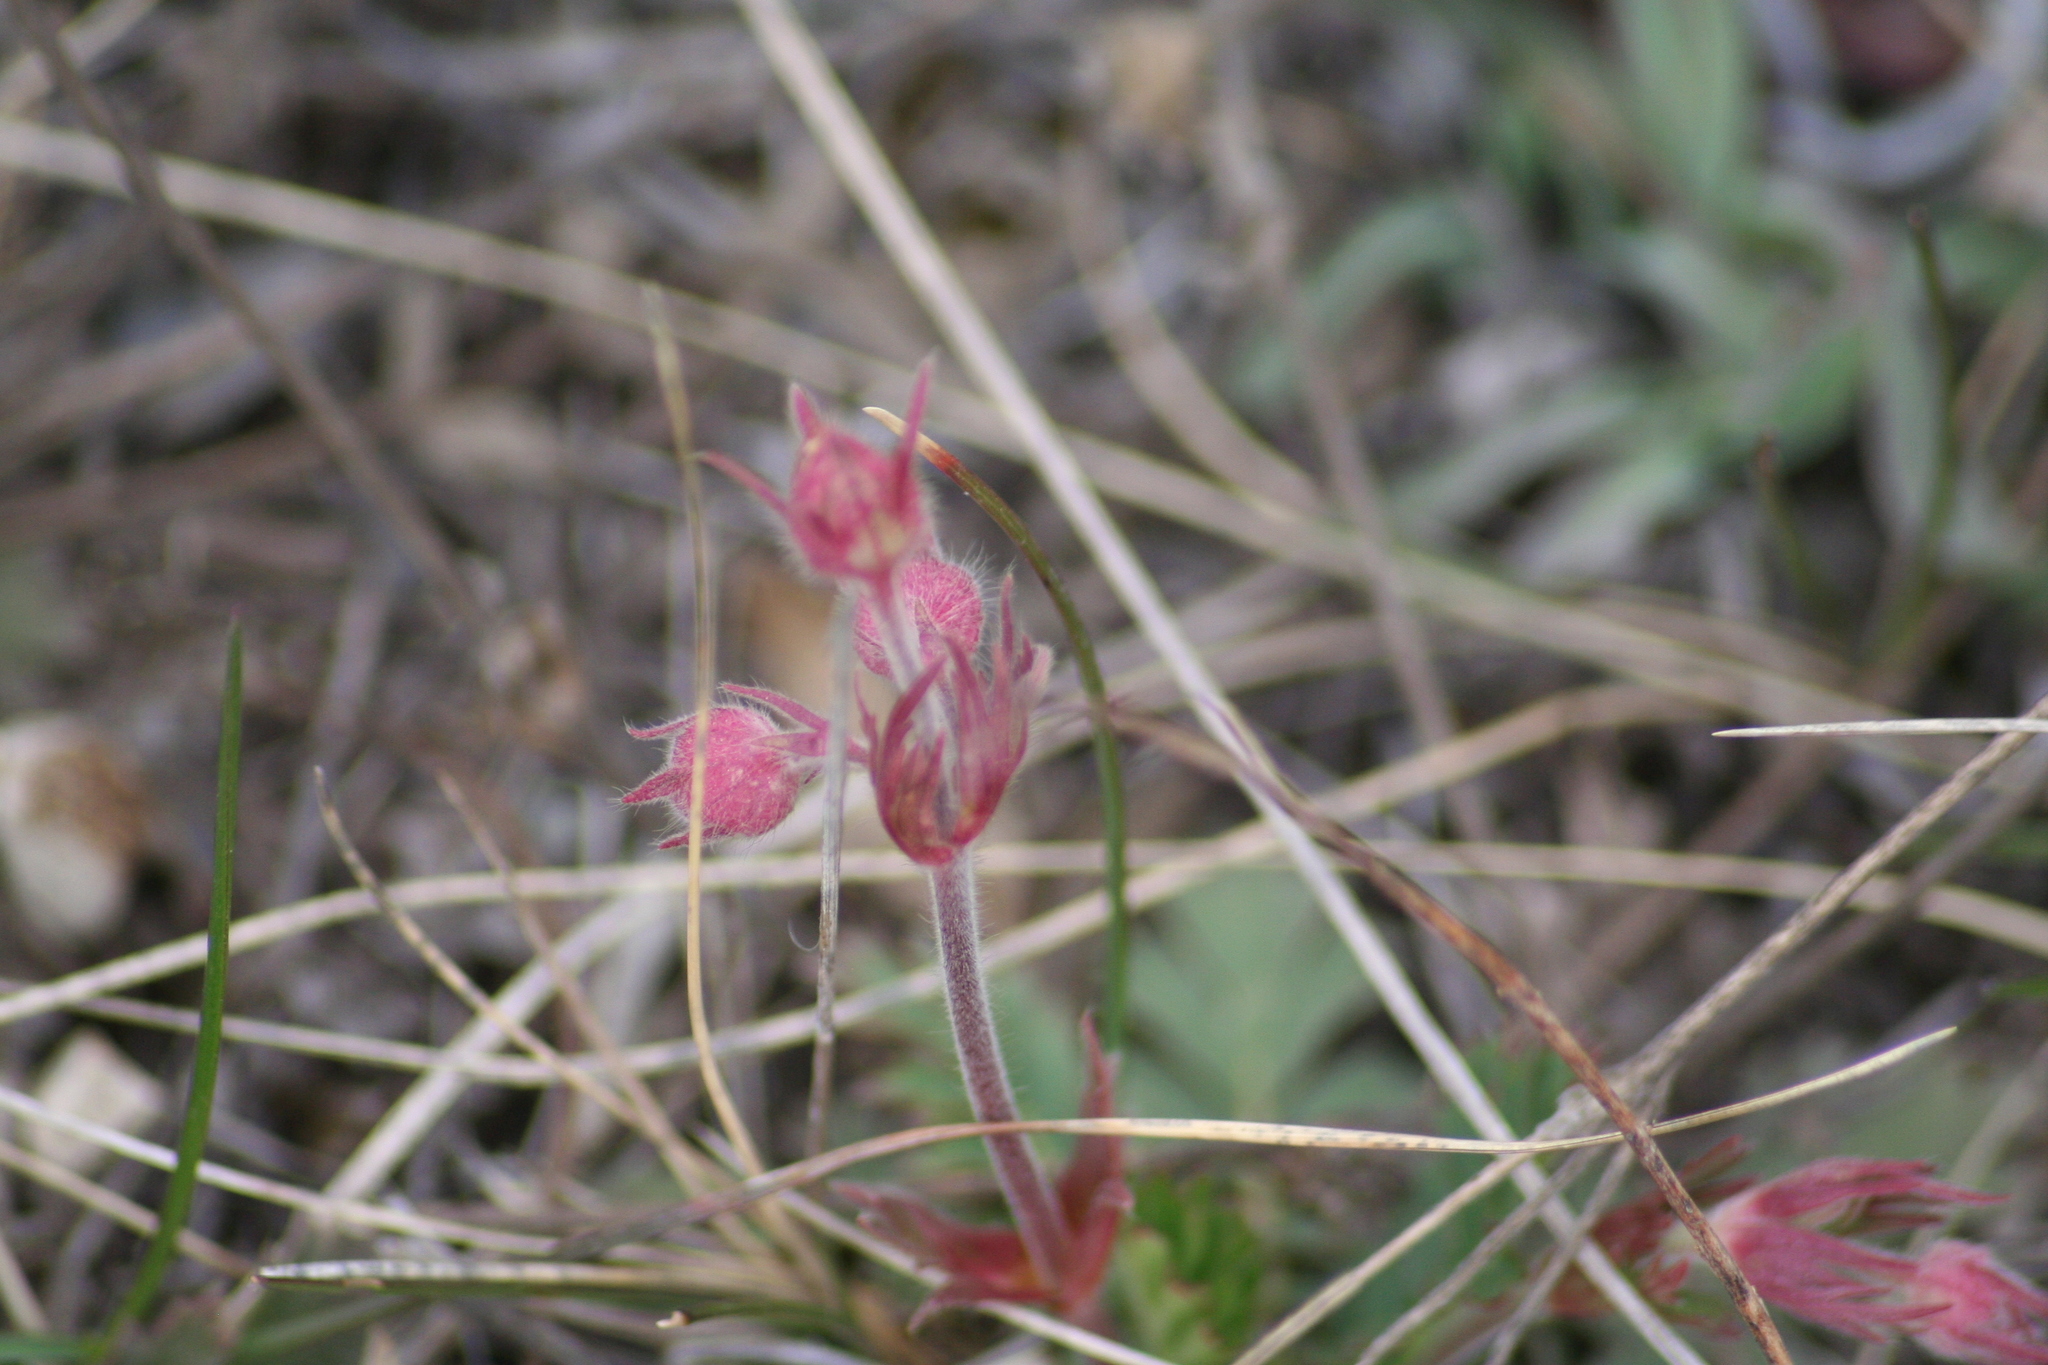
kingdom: Plantae
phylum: Tracheophyta
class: Magnoliopsida
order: Rosales
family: Rosaceae
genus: Geum
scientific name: Geum triflorum
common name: Old man's whiskers
